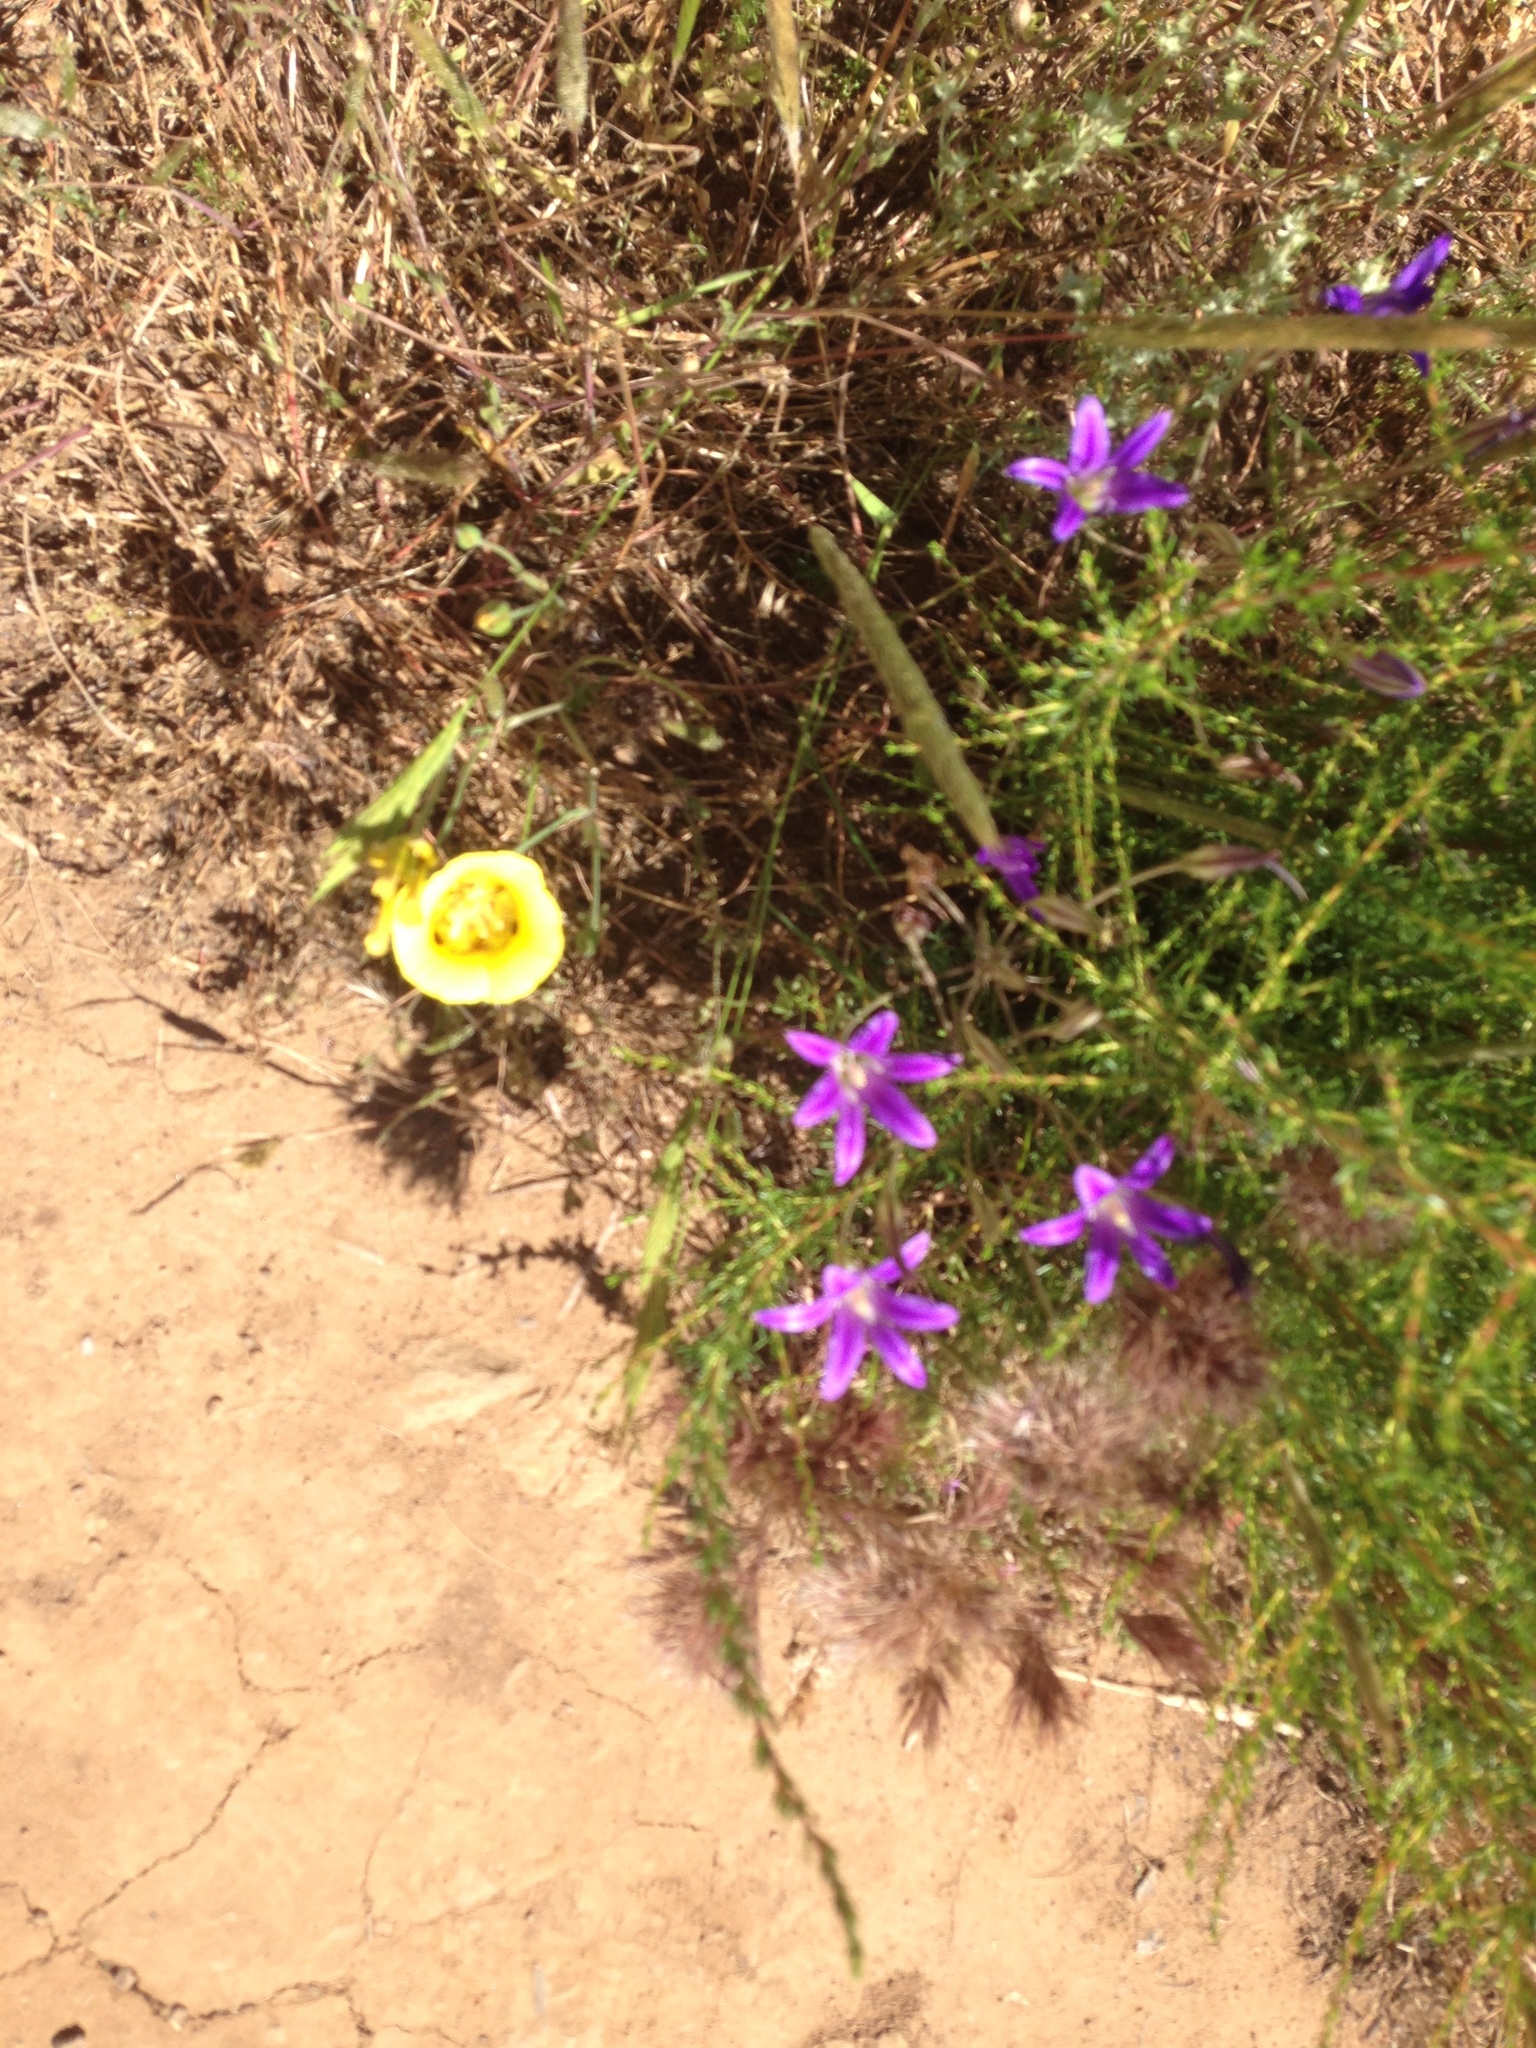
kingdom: Plantae
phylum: Tracheophyta
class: Liliopsida
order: Liliales
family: Liliaceae
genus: Calochortus
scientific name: Calochortus luteus
